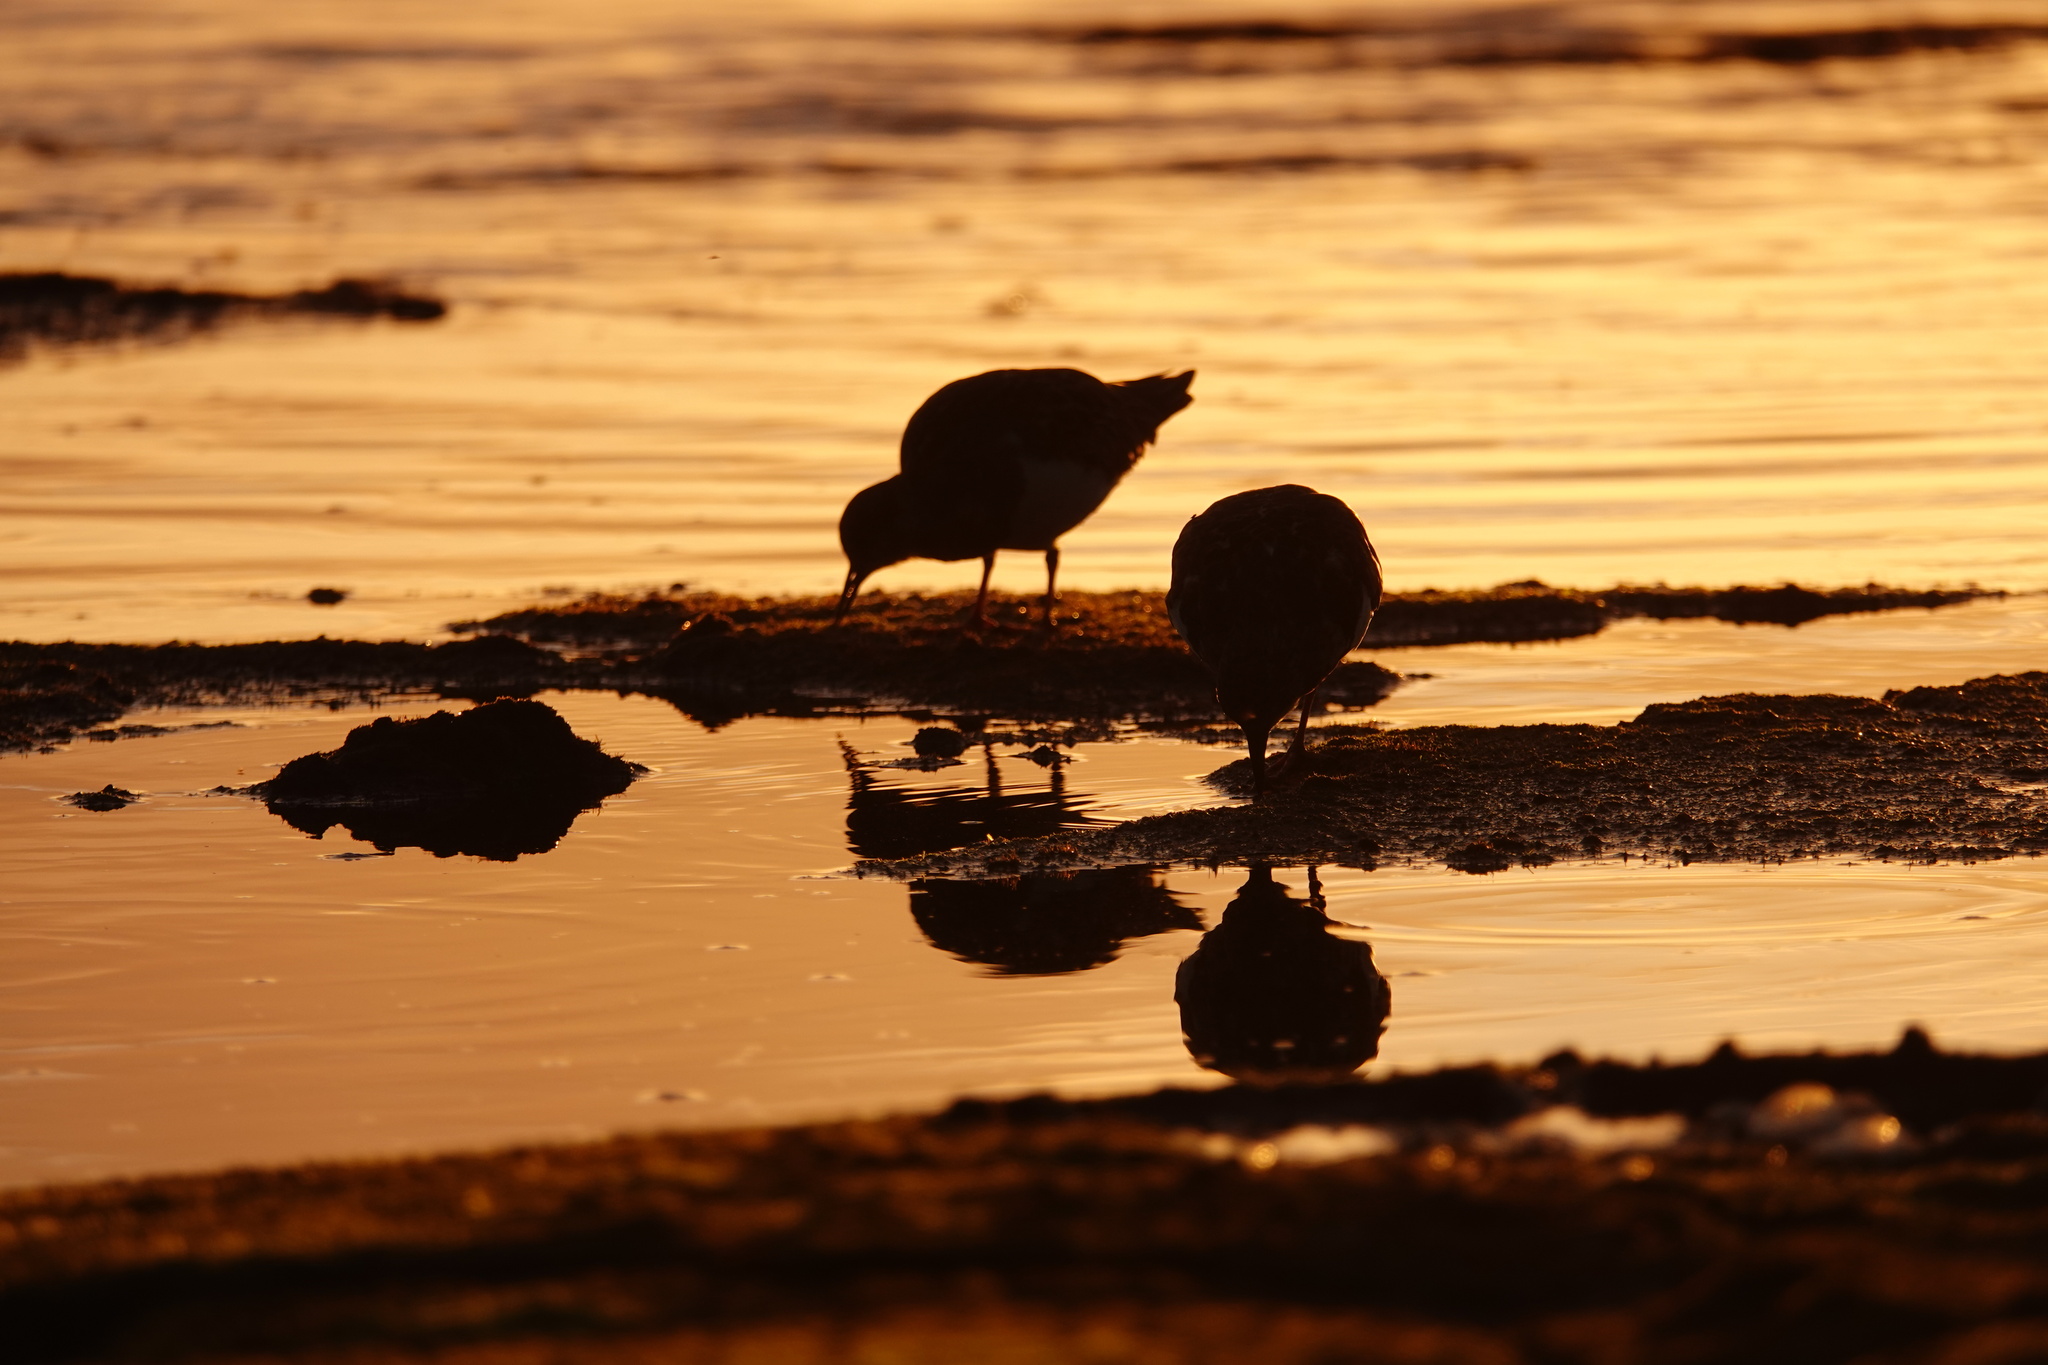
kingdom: Animalia
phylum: Chordata
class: Aves
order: Charadriiformes
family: Scolopacidae
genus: Arenaria
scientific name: Arenaria interpres
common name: Ruddy turnstone
